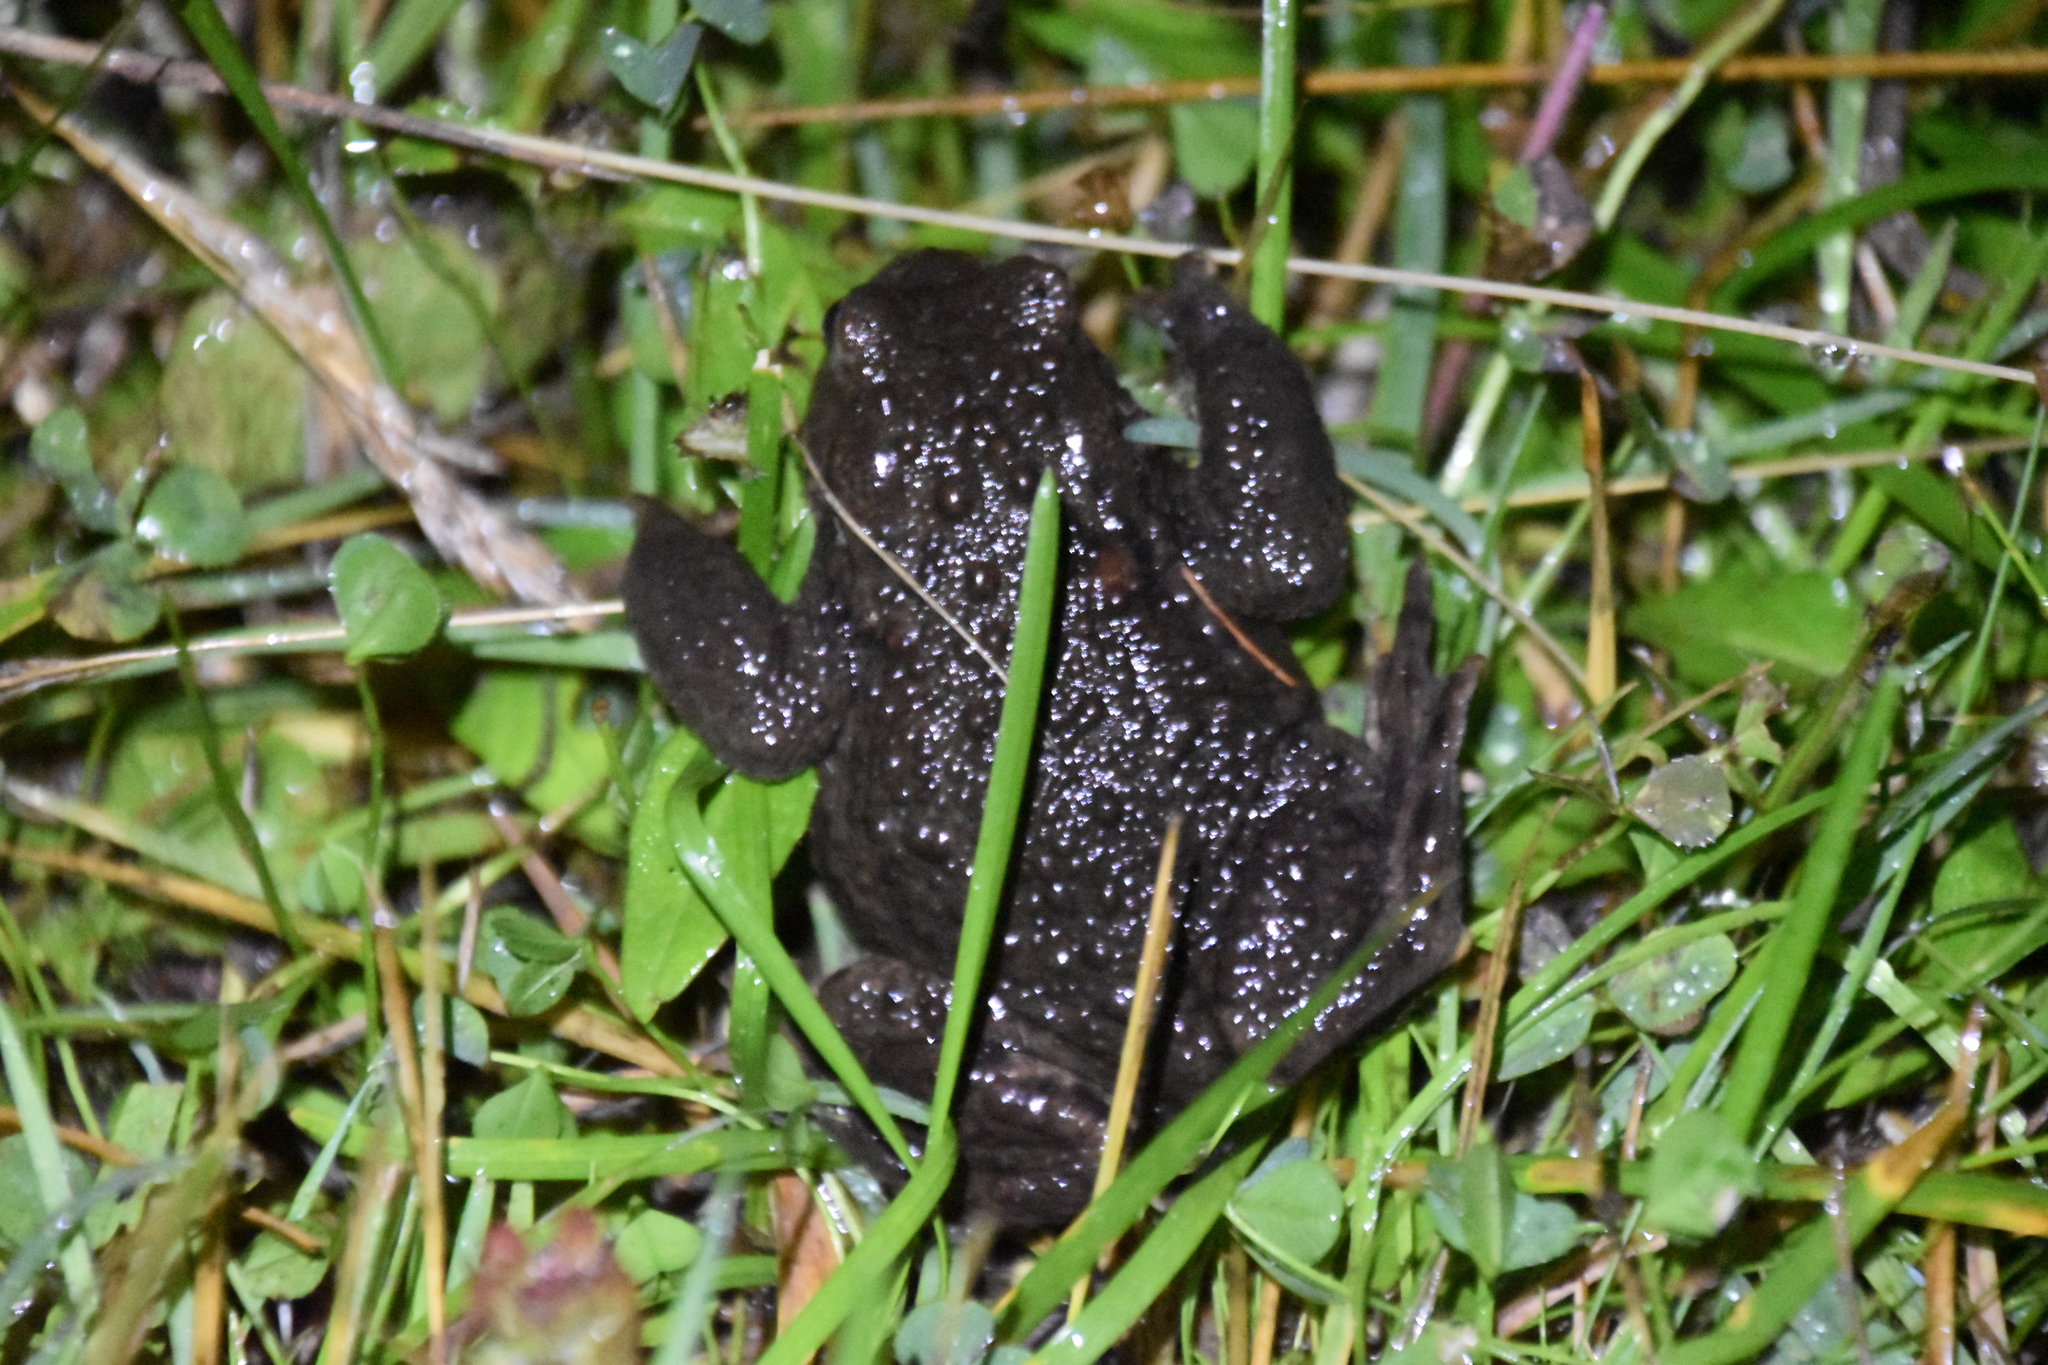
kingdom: Animalia
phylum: Chordata
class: Amphibia
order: Anura
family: Bufonidae
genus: Bufo
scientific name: Bufo bufo
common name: Common toad
